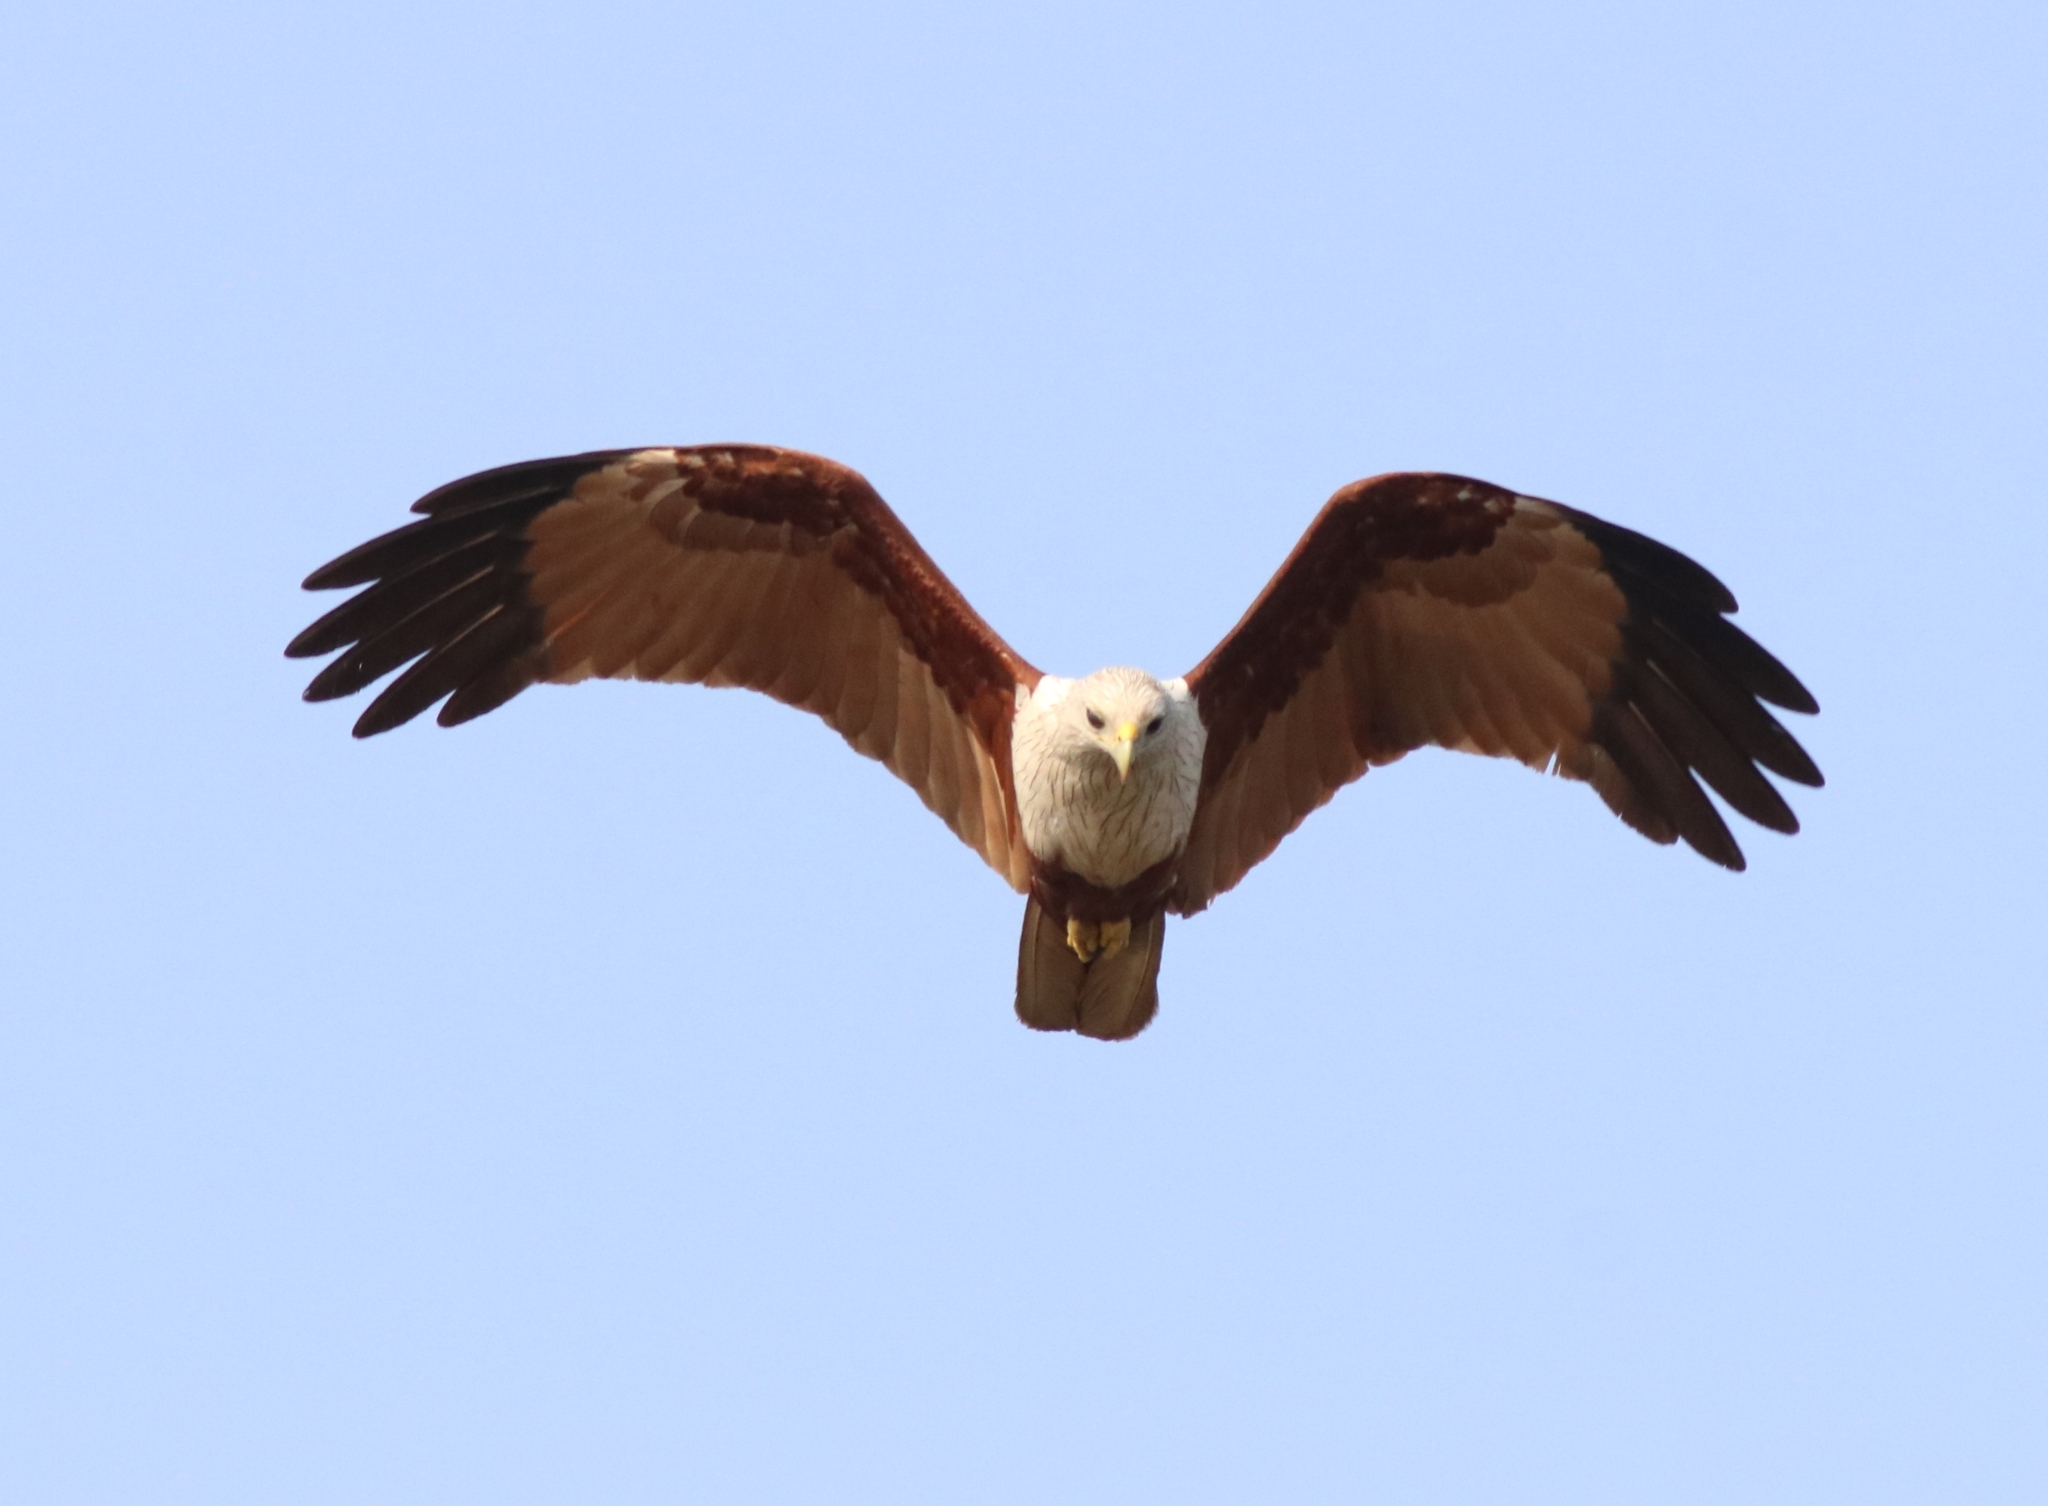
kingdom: Animalia
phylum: Chordata
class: Aves
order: Accipitriformes
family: Accipitridae
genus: Haliastur
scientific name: Haliastur indus
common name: Brahminy kite
